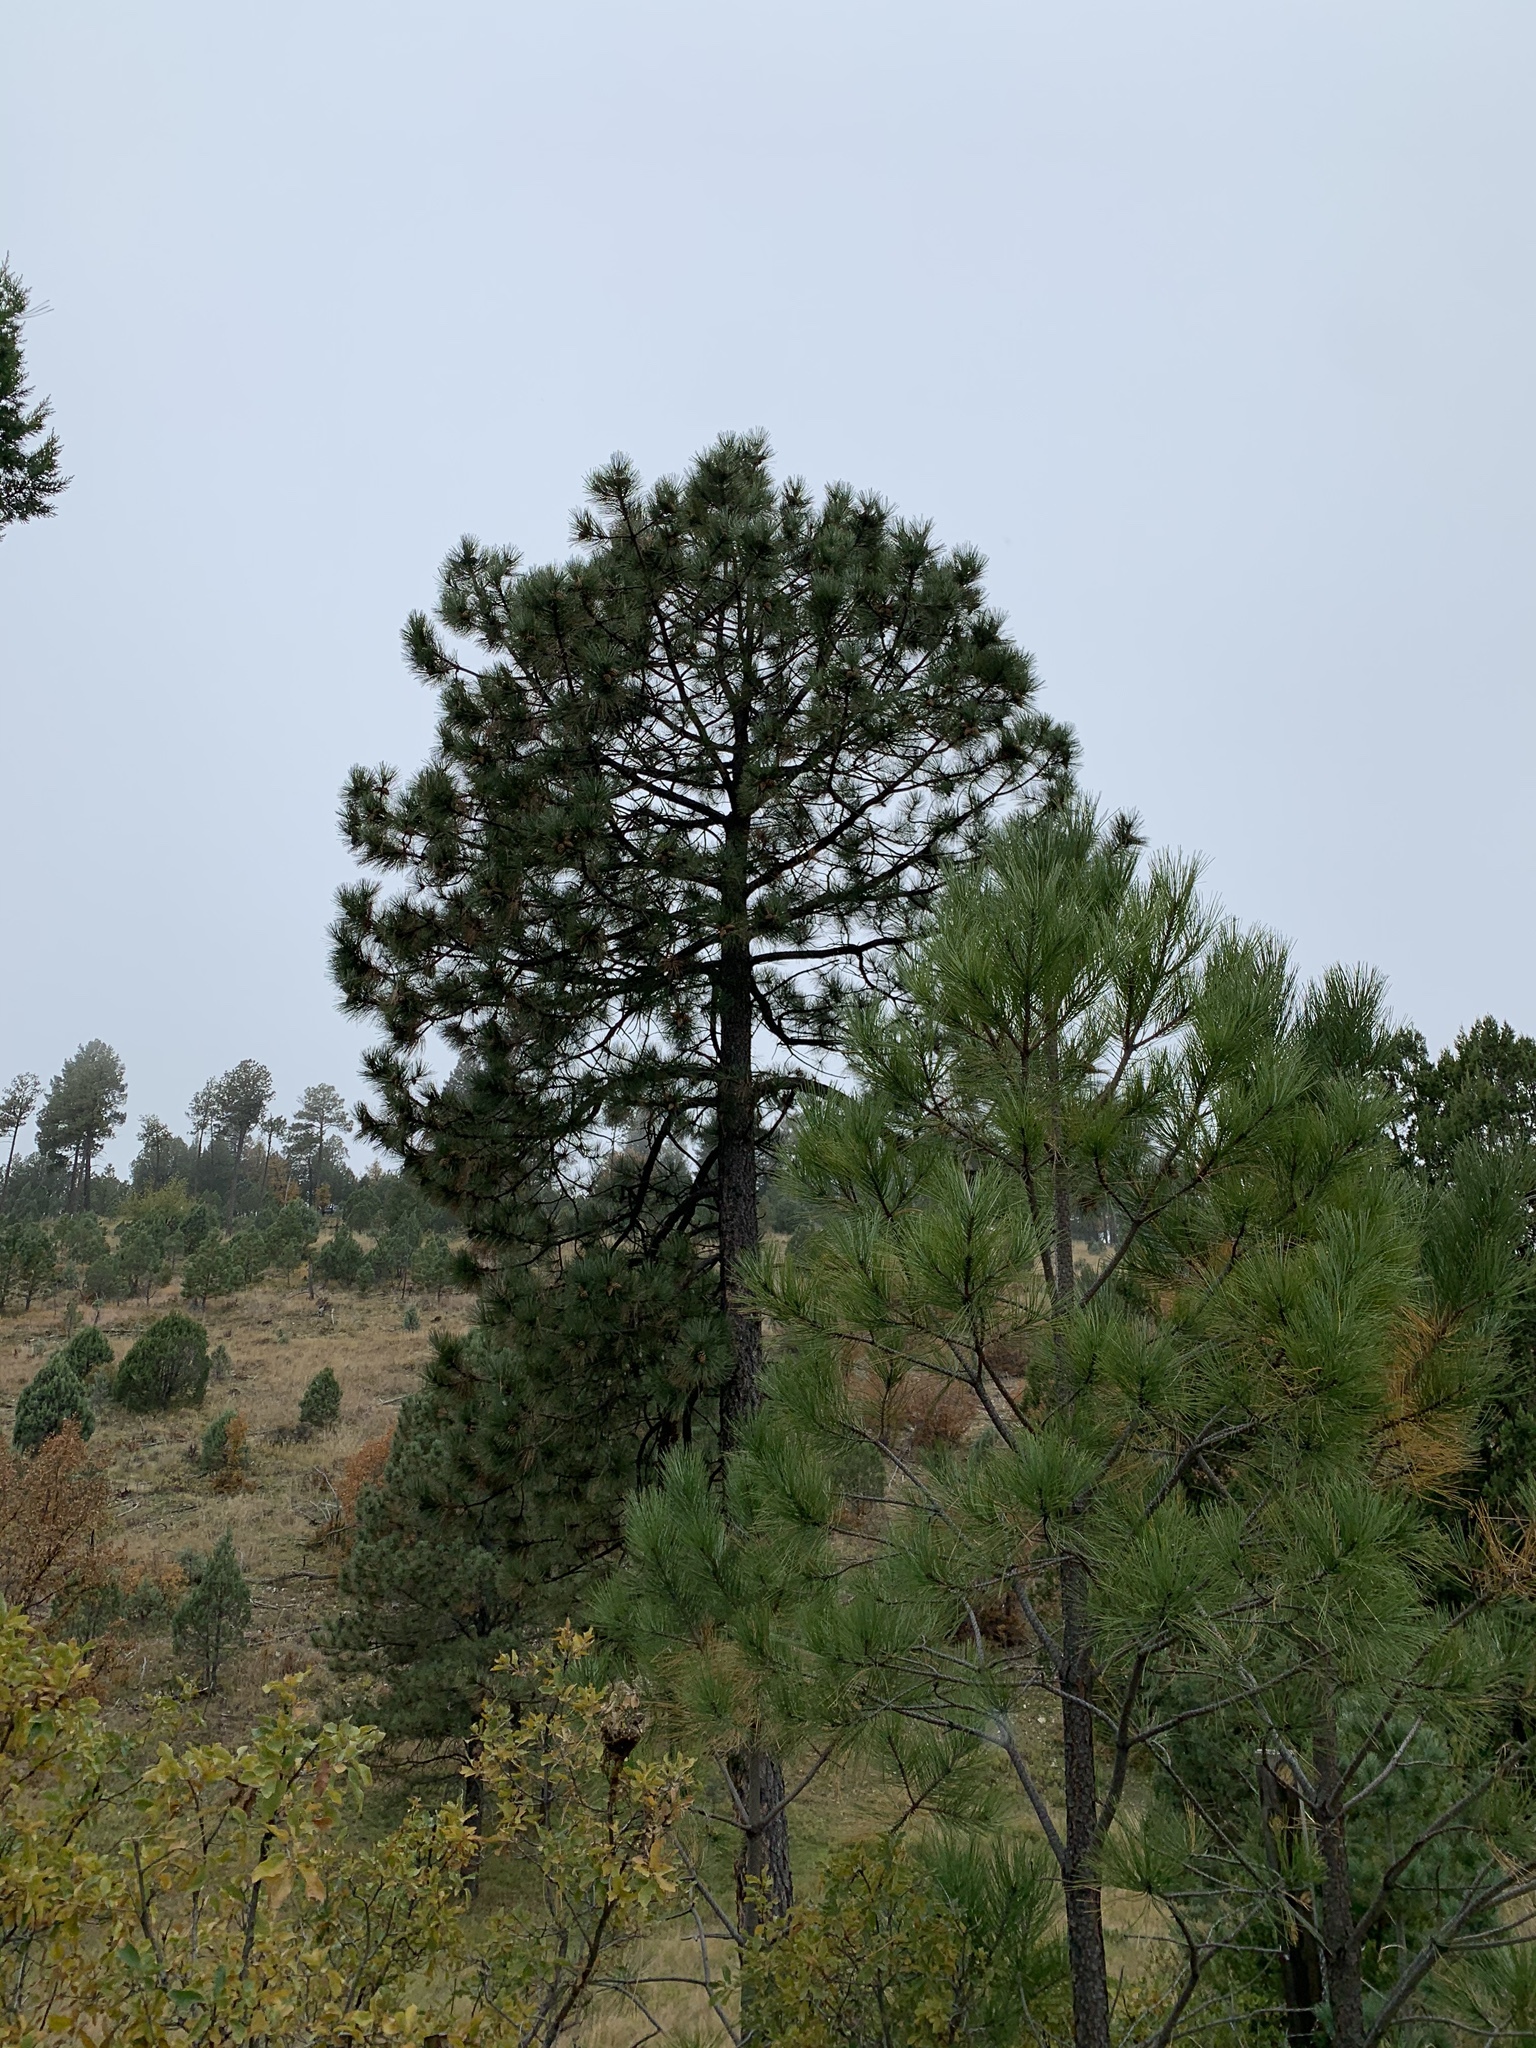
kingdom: Plantae
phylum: Tracheophyta
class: Pinopsida
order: Pinales
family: Pinaceae
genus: Pinus
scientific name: Pinus ponderosa
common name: Western yellow-pine
